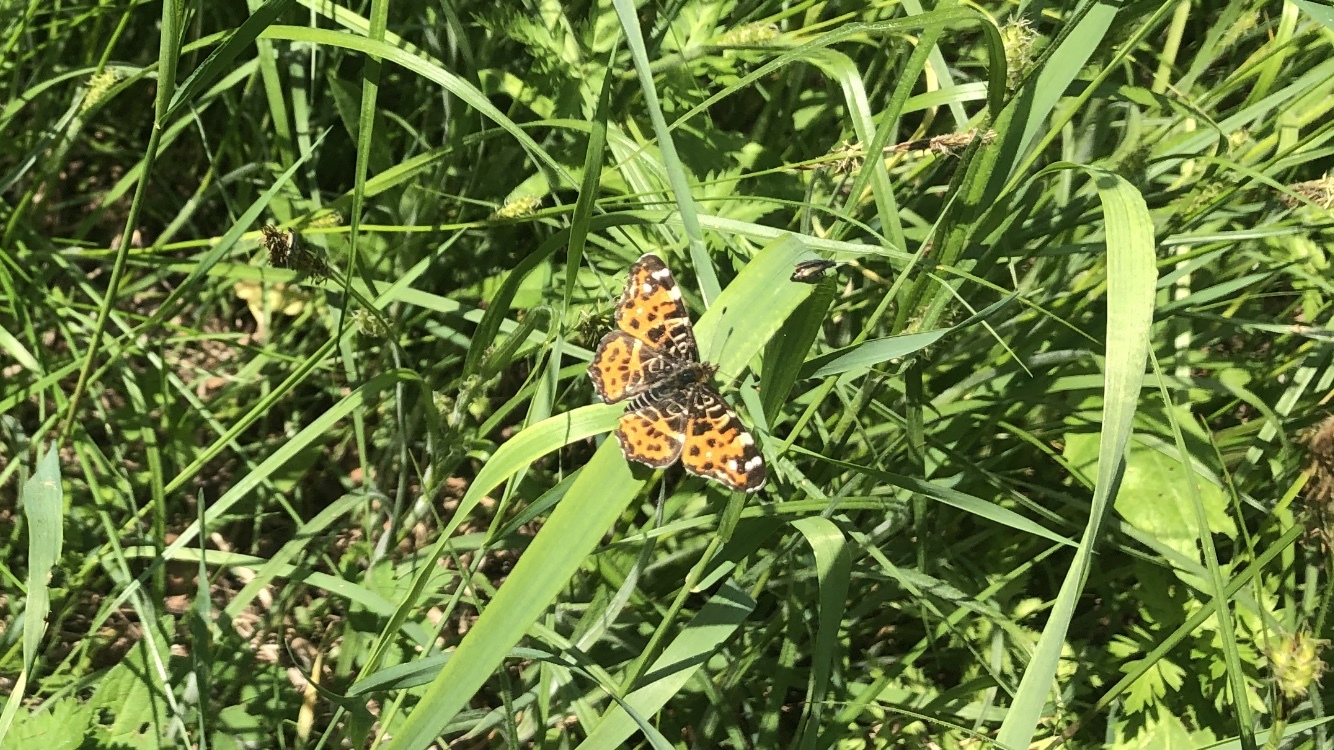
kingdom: Animalia
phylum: Arthropoda
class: Insecta
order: Lepidoptera
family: Nymphalidae
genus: Araschnia
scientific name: Araschnia levana
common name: Map butterfly
